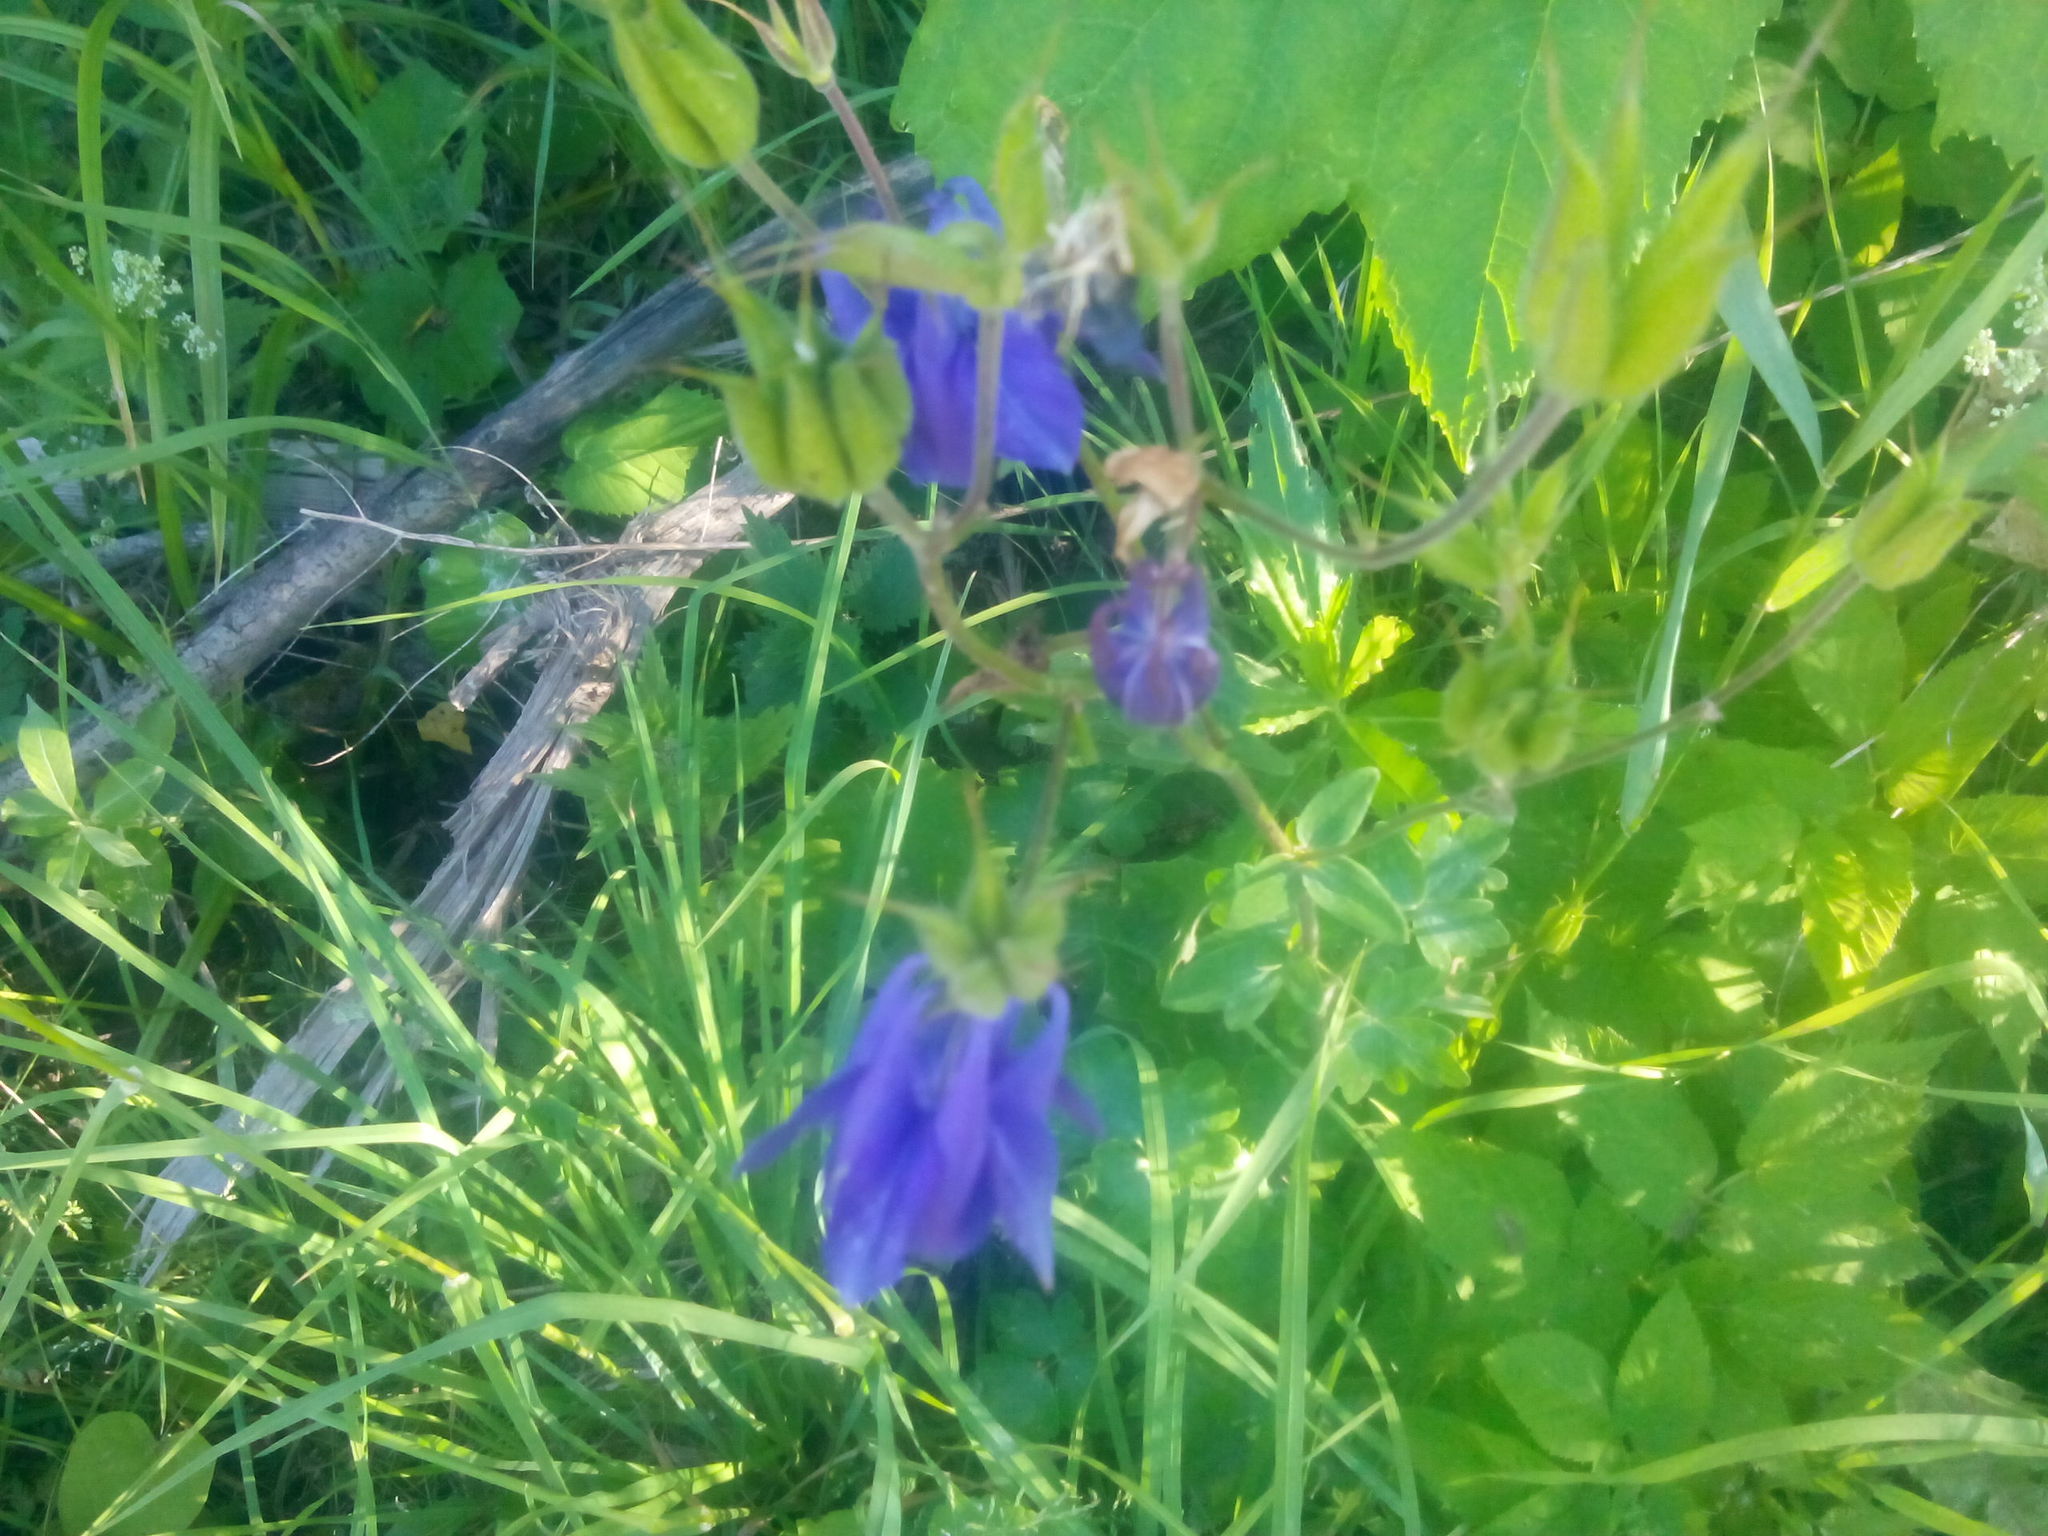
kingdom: Plantae
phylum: Tracheophyta
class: Magnoliopsida
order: Ranunculales
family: Ranunculaceae
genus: Aquilegia
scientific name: Aquilegia vulgaris
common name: Columbine
